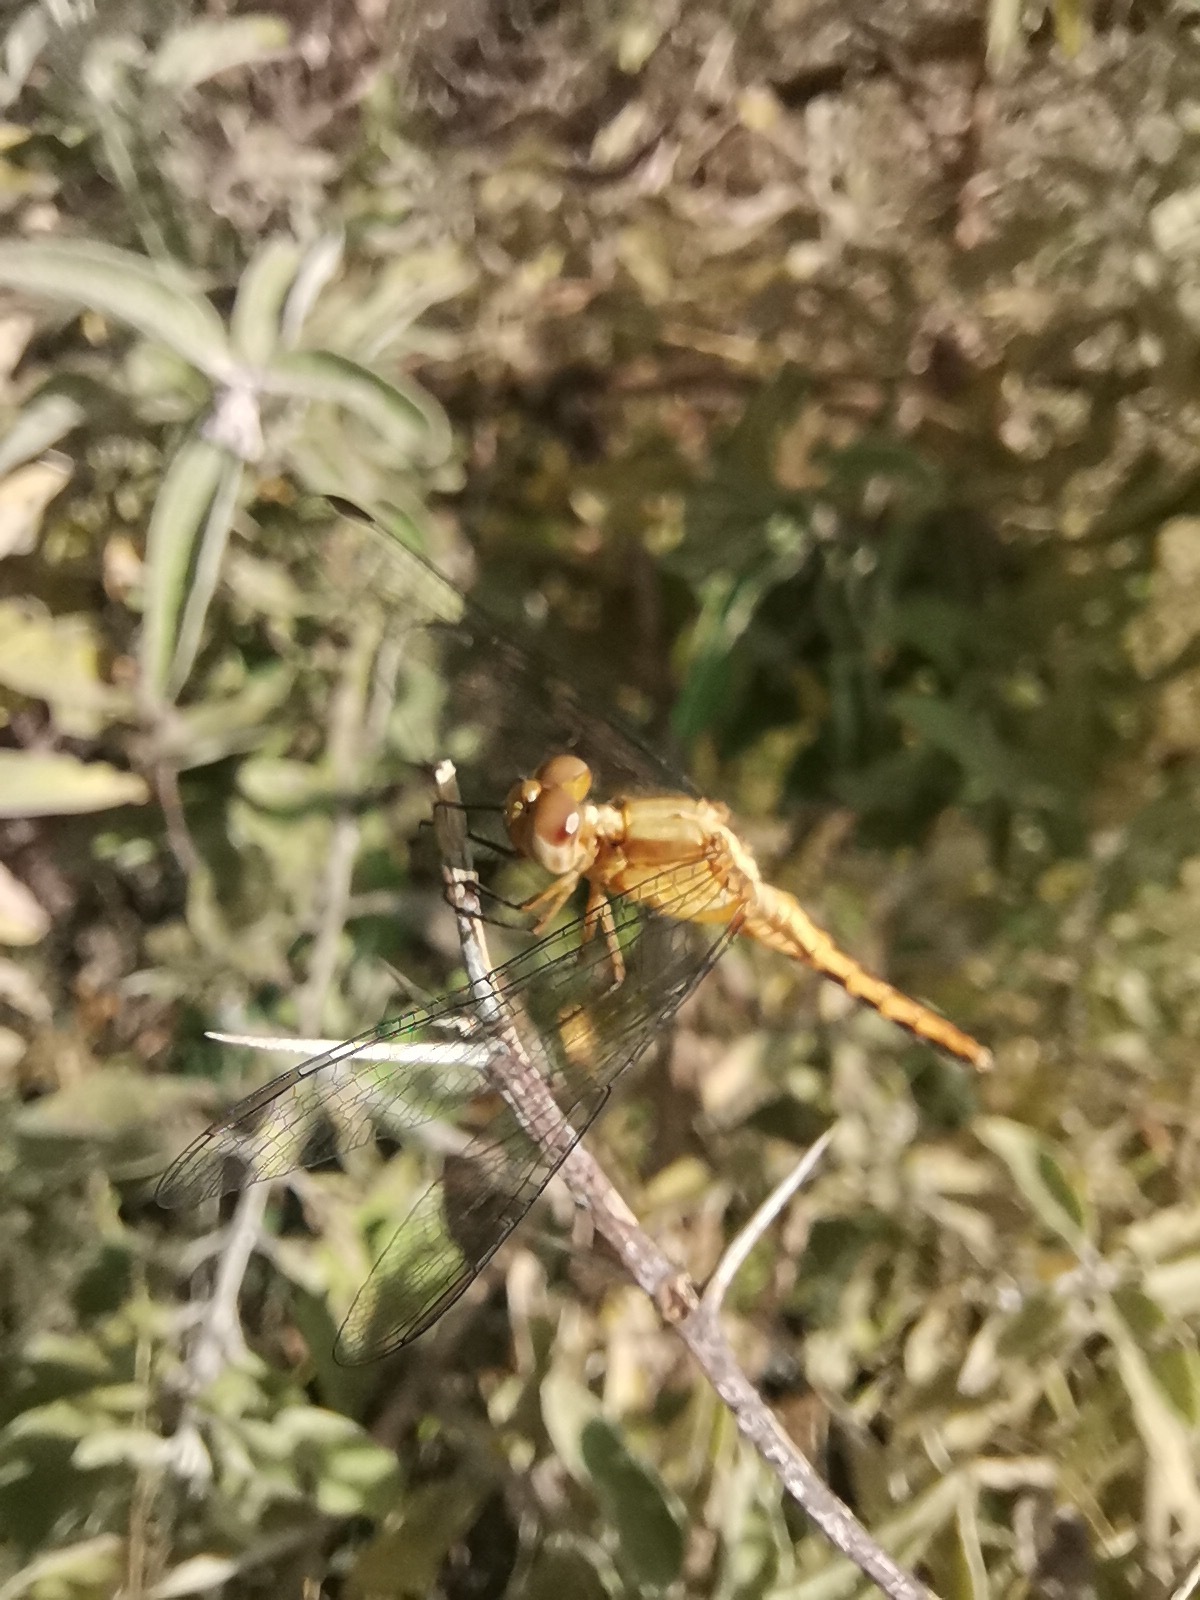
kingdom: Animalia
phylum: Arthropoda
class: Insecta
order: Odonata
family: Libellulidae
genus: Erythrodiplax
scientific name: Erythrodiplax basifusca
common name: Plateau dragonlet
